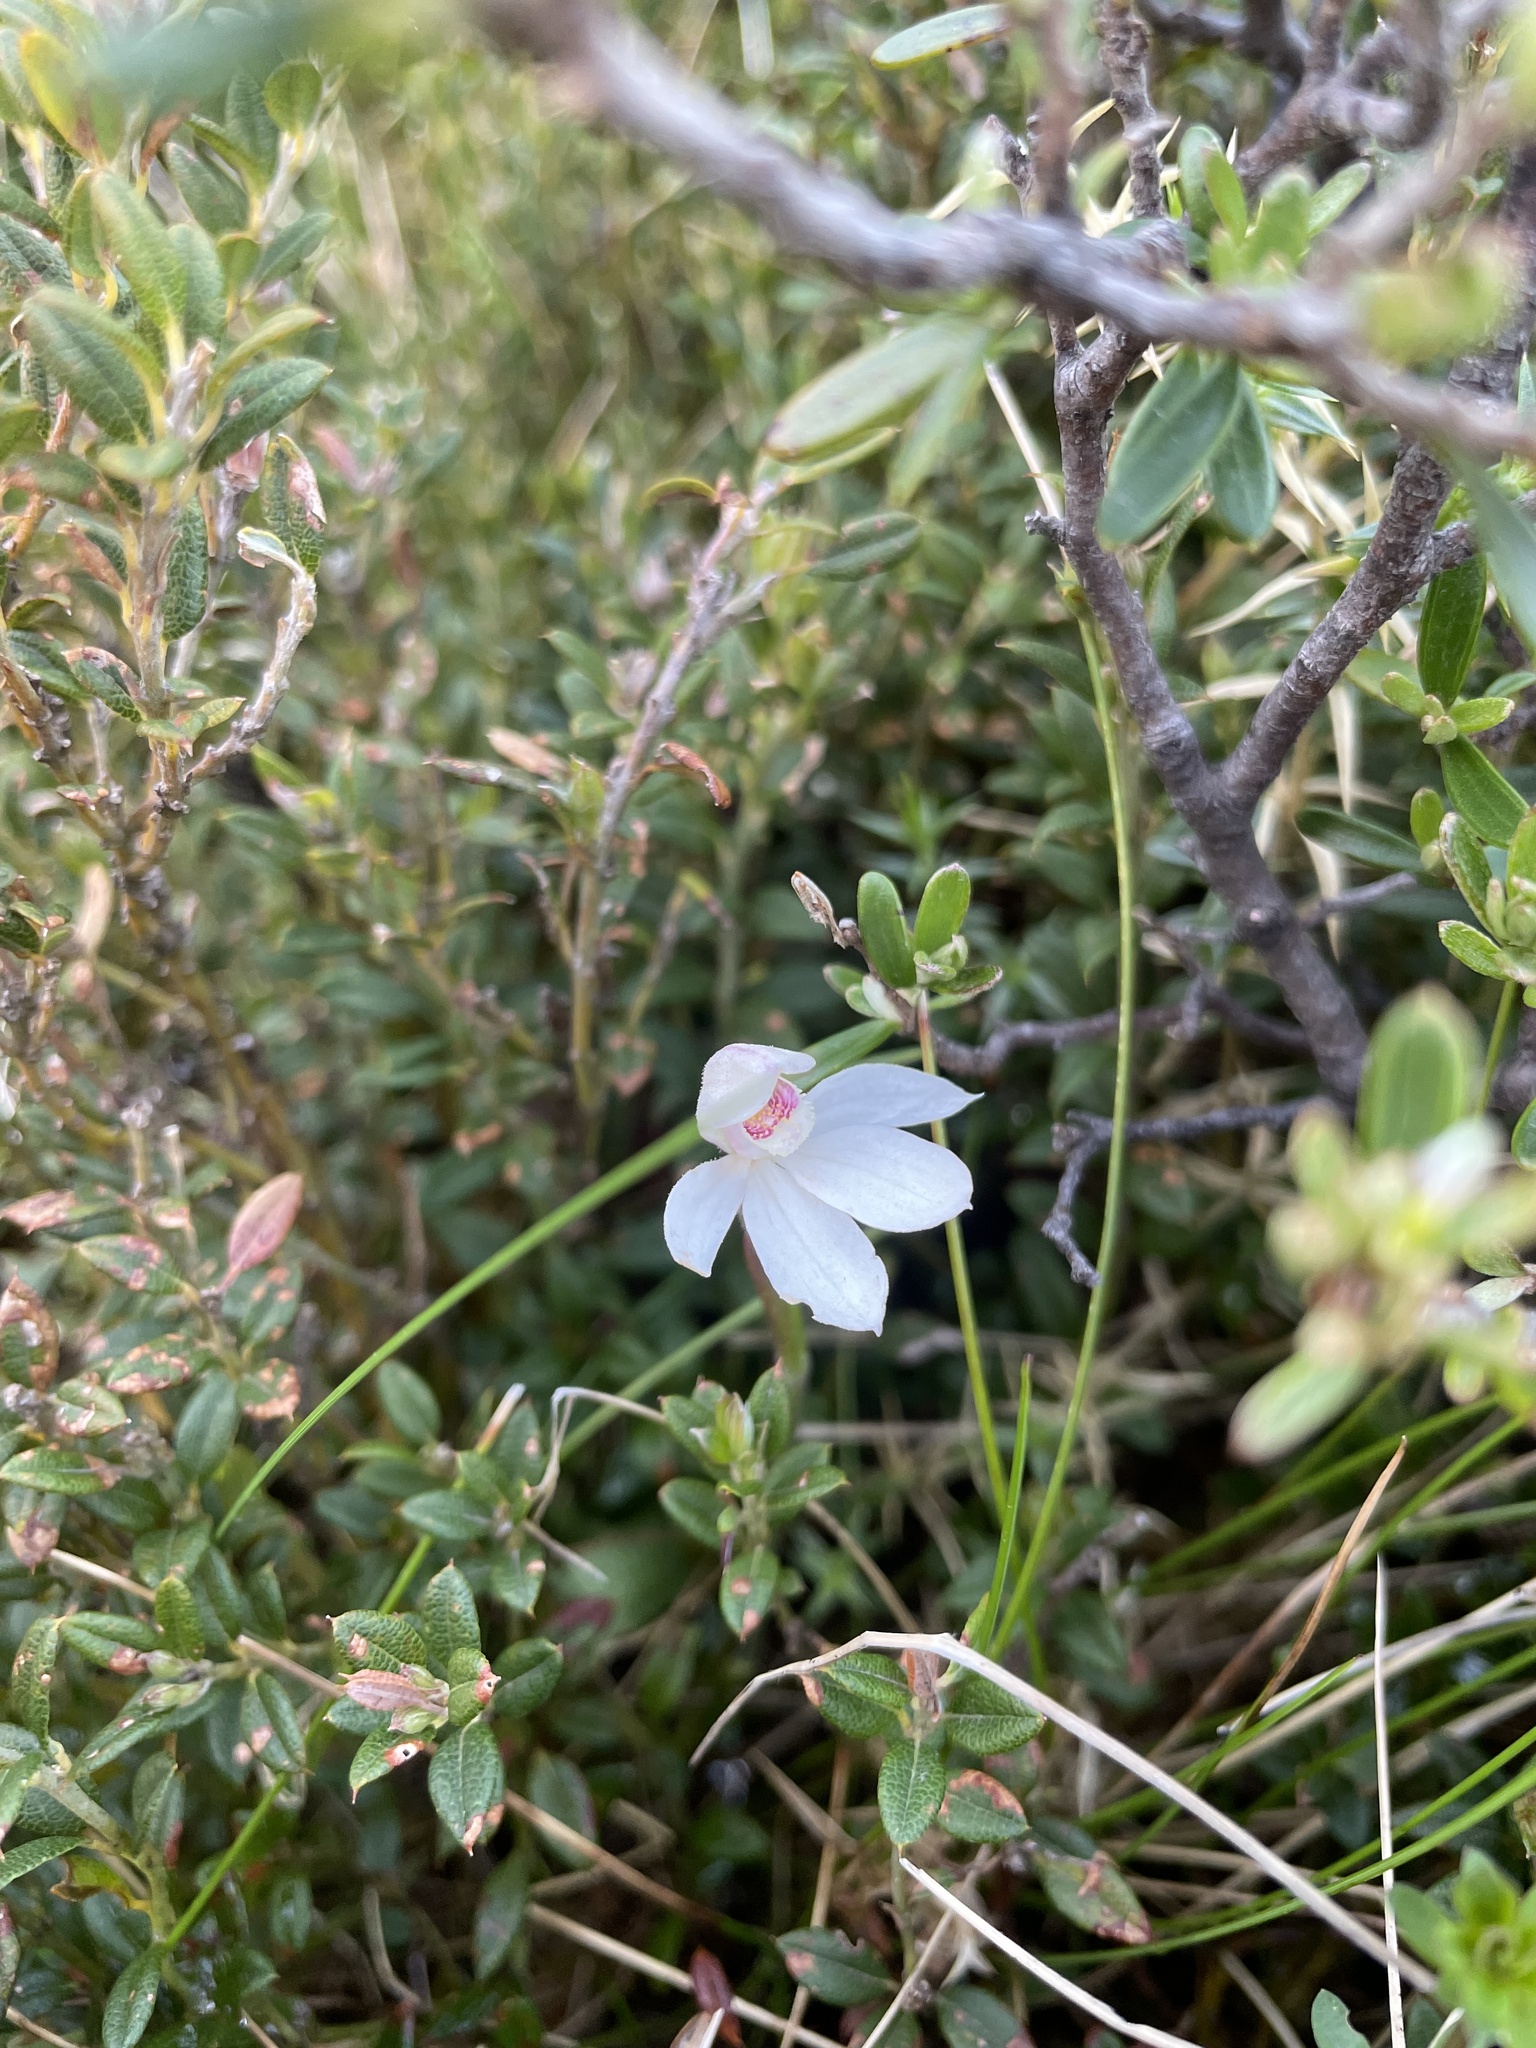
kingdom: Plantae
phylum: Tracheophyta
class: Liliopsida
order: Asparagales
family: Orchidaceae
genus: Caladenia
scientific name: Caladenia alpina
